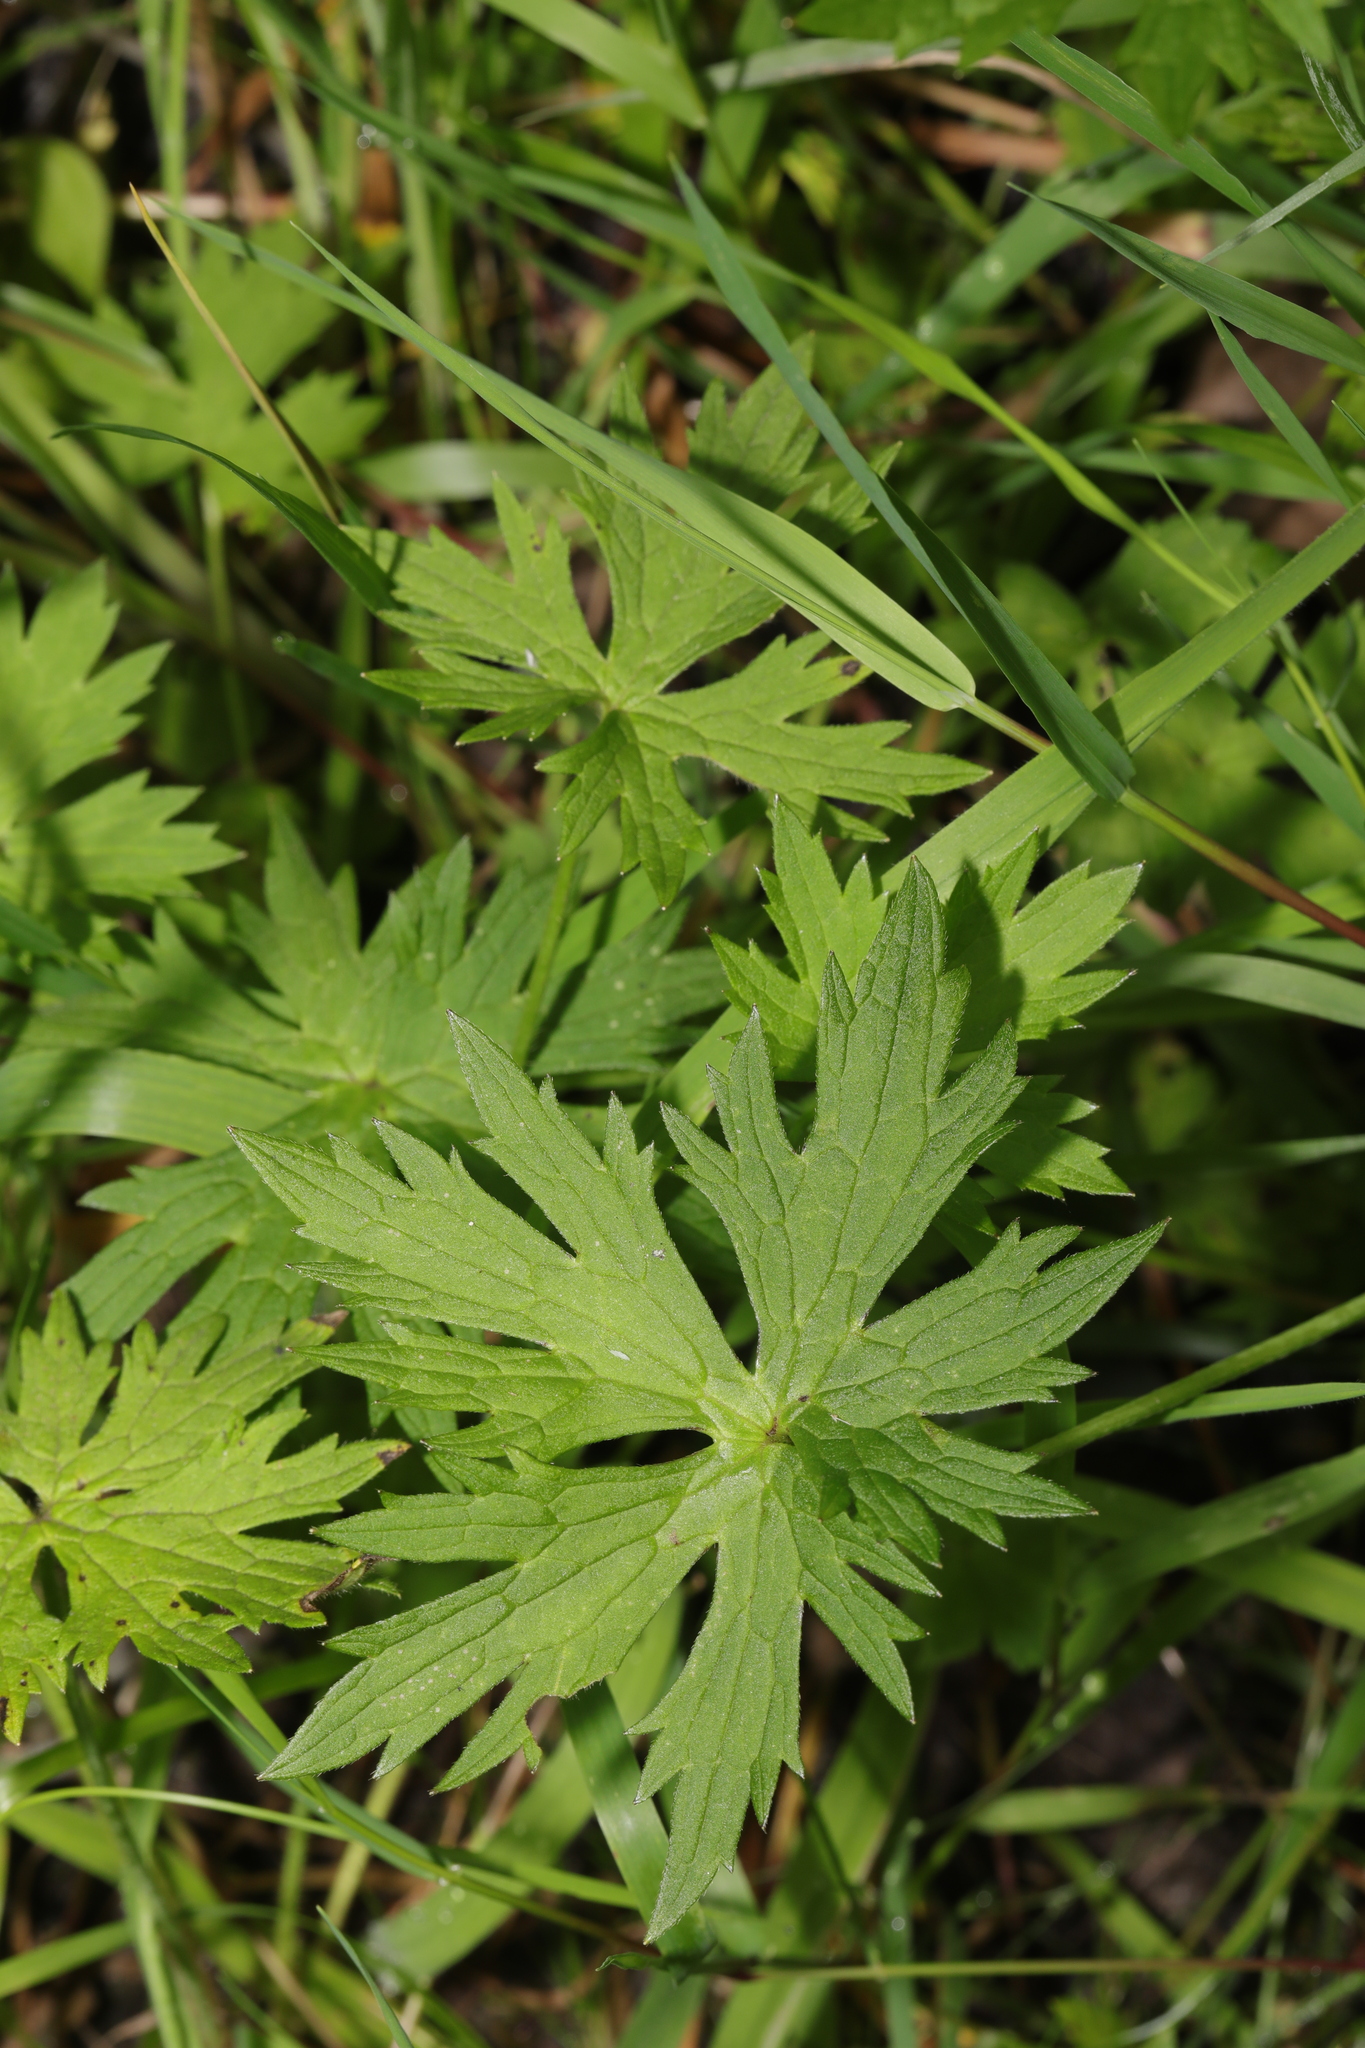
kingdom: Plantae
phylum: Tracheophyta
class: Magnoliopsida
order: Ranunculales
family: Ranunculaceae
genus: Ranunculus
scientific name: Ranunculus acris
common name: Meadow buttercup
